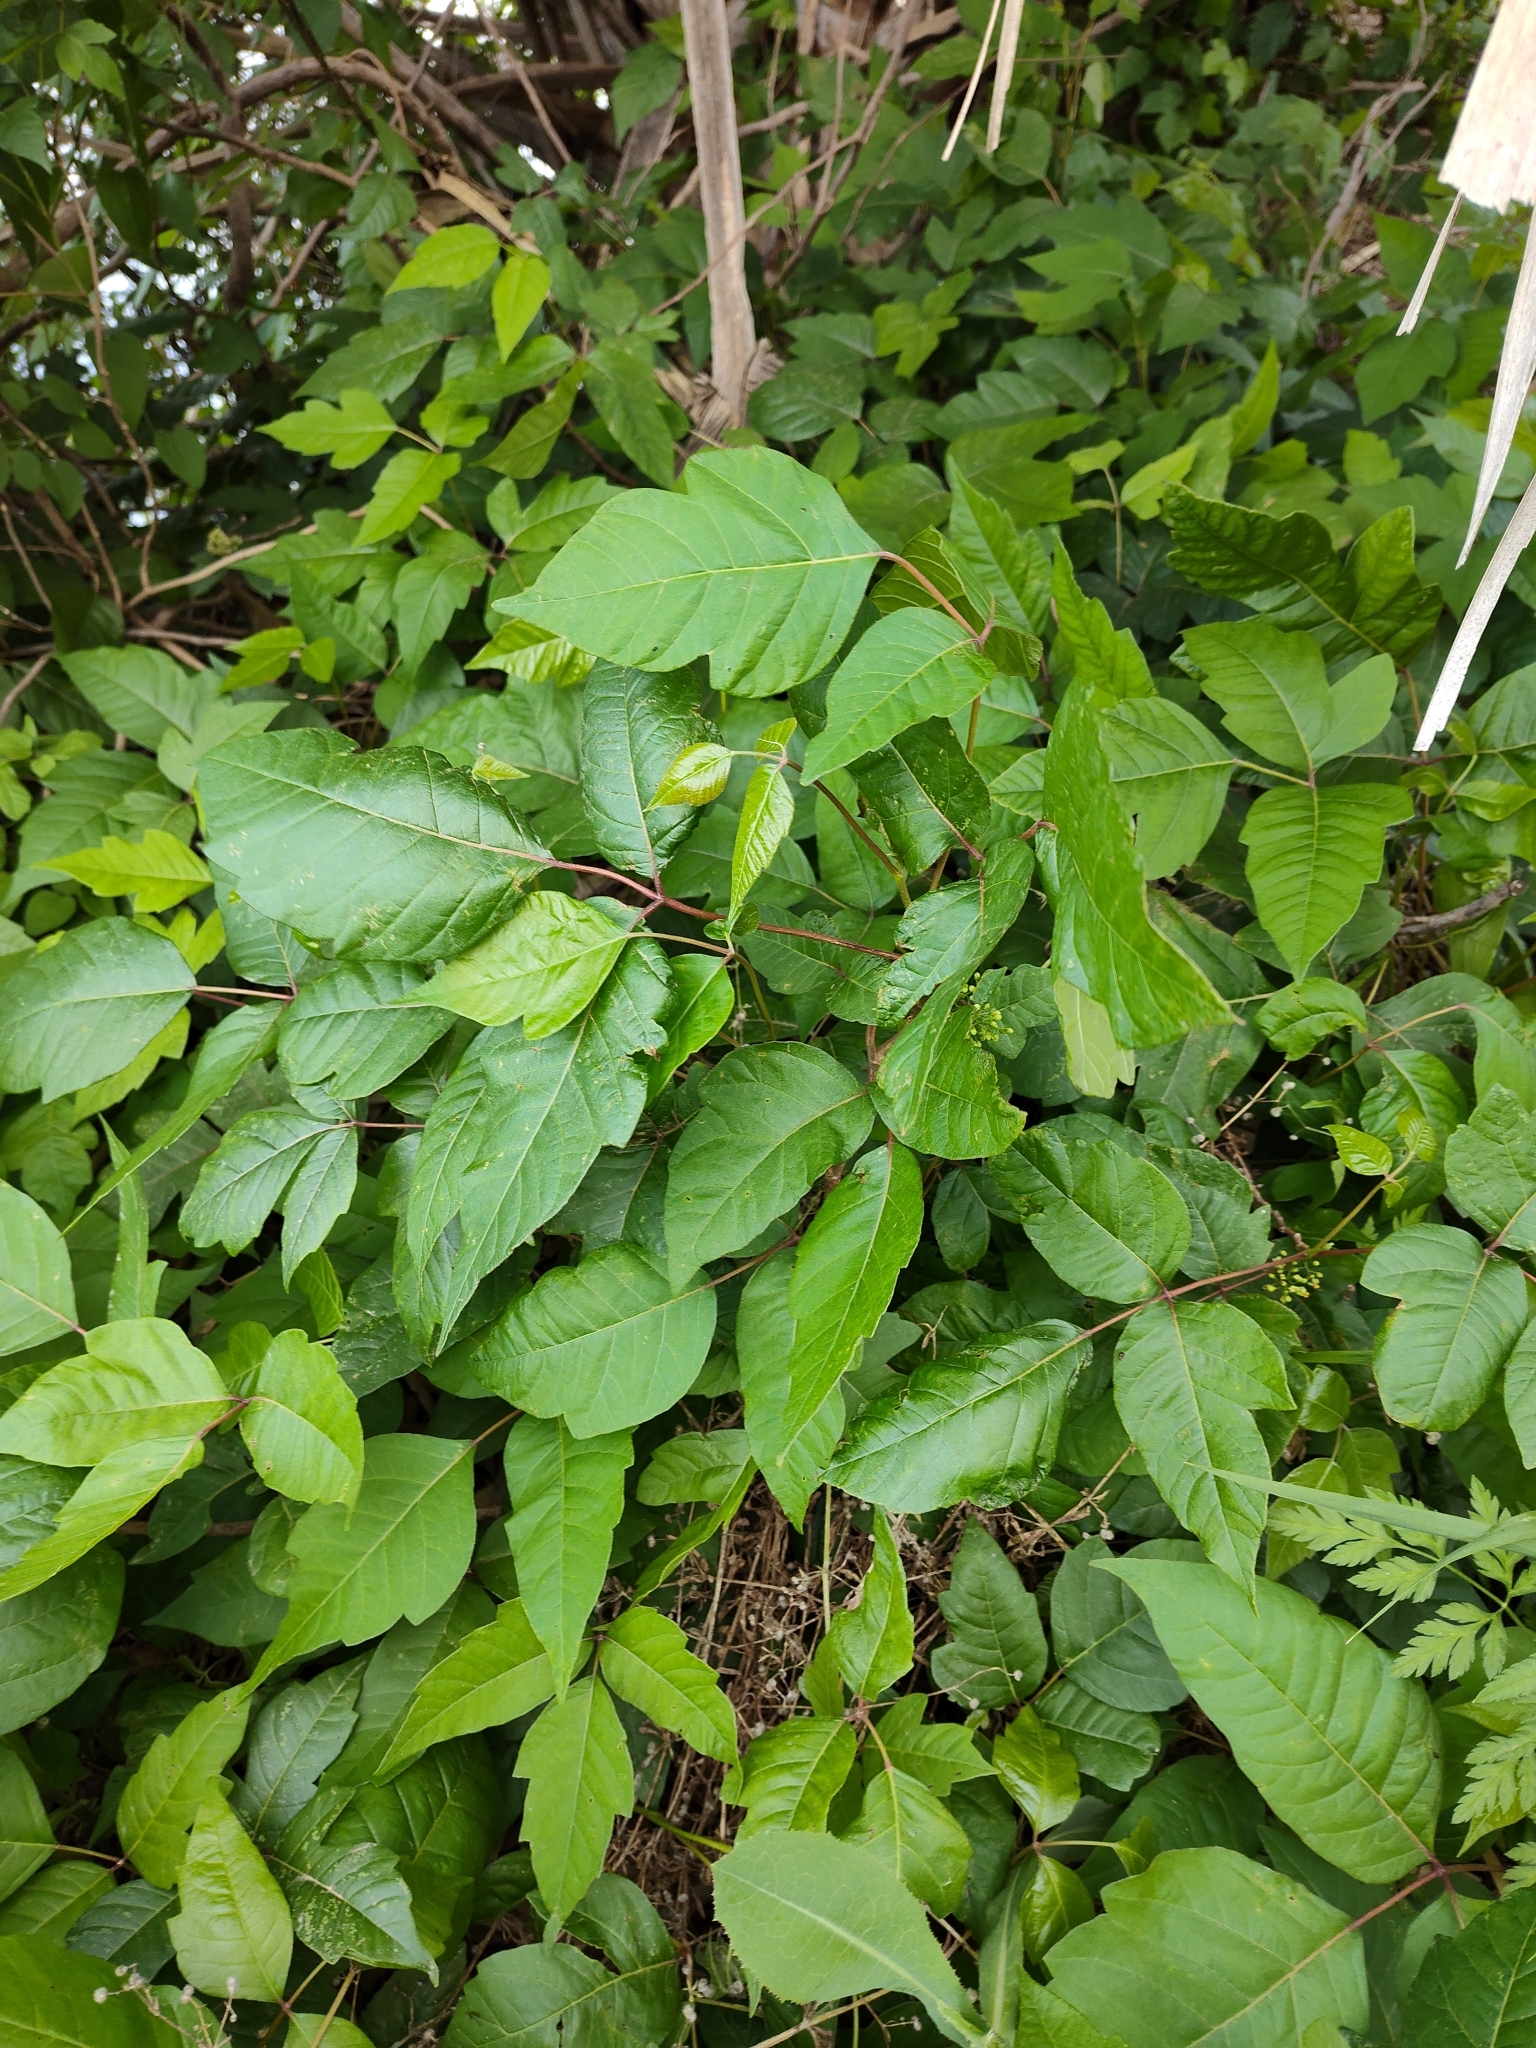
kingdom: Plantae
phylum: Tracheophyta
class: Magnoliopsida
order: Sapindales
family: Anacardiaceae
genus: Toxicodendron
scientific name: Toxicodendron radicans
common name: Poison ivy
